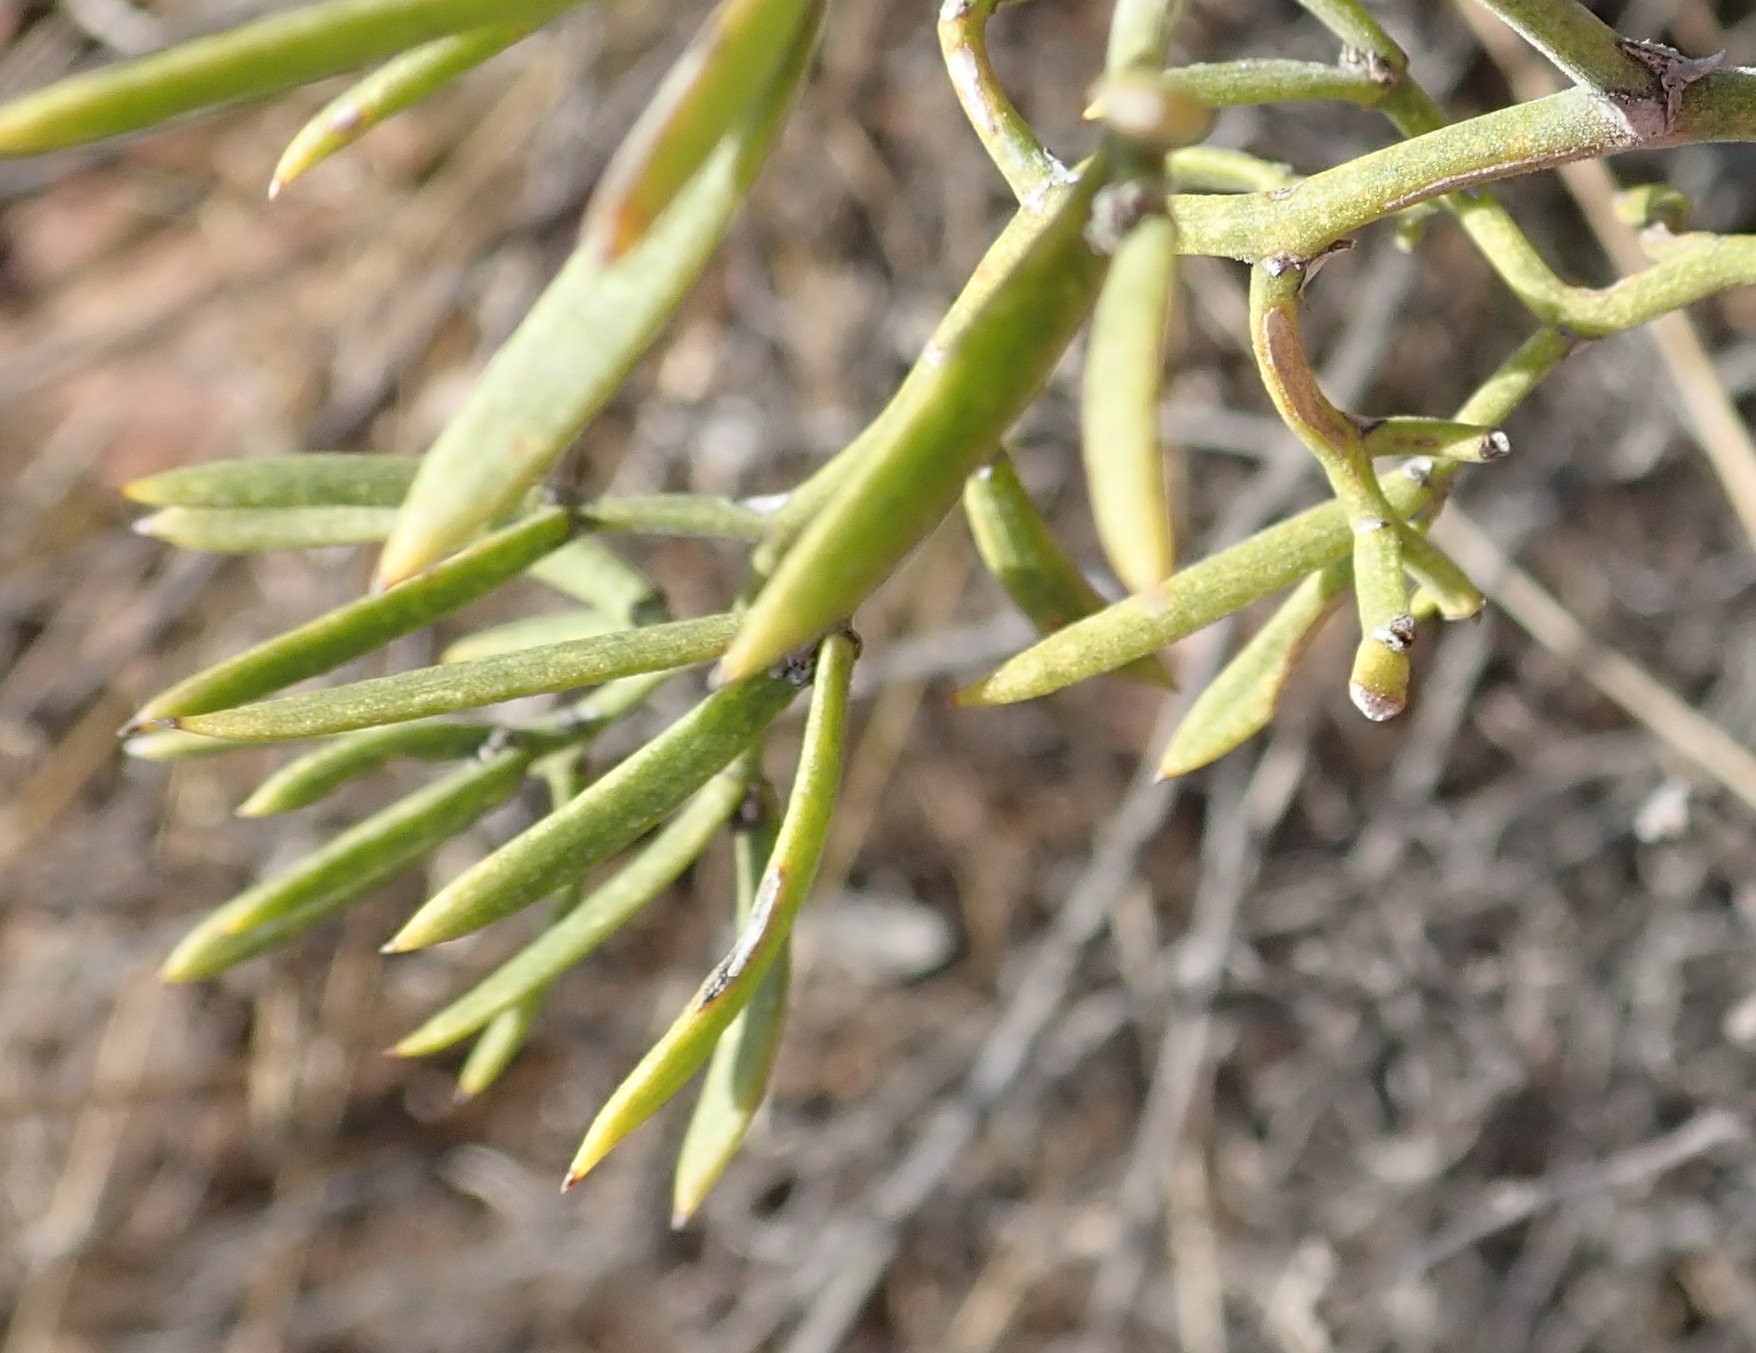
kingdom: Plantae
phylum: Tracheophyta
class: Liliopsida
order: Asparagales
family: Asparagaceae
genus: Asparagus
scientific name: Asparagus striatus
